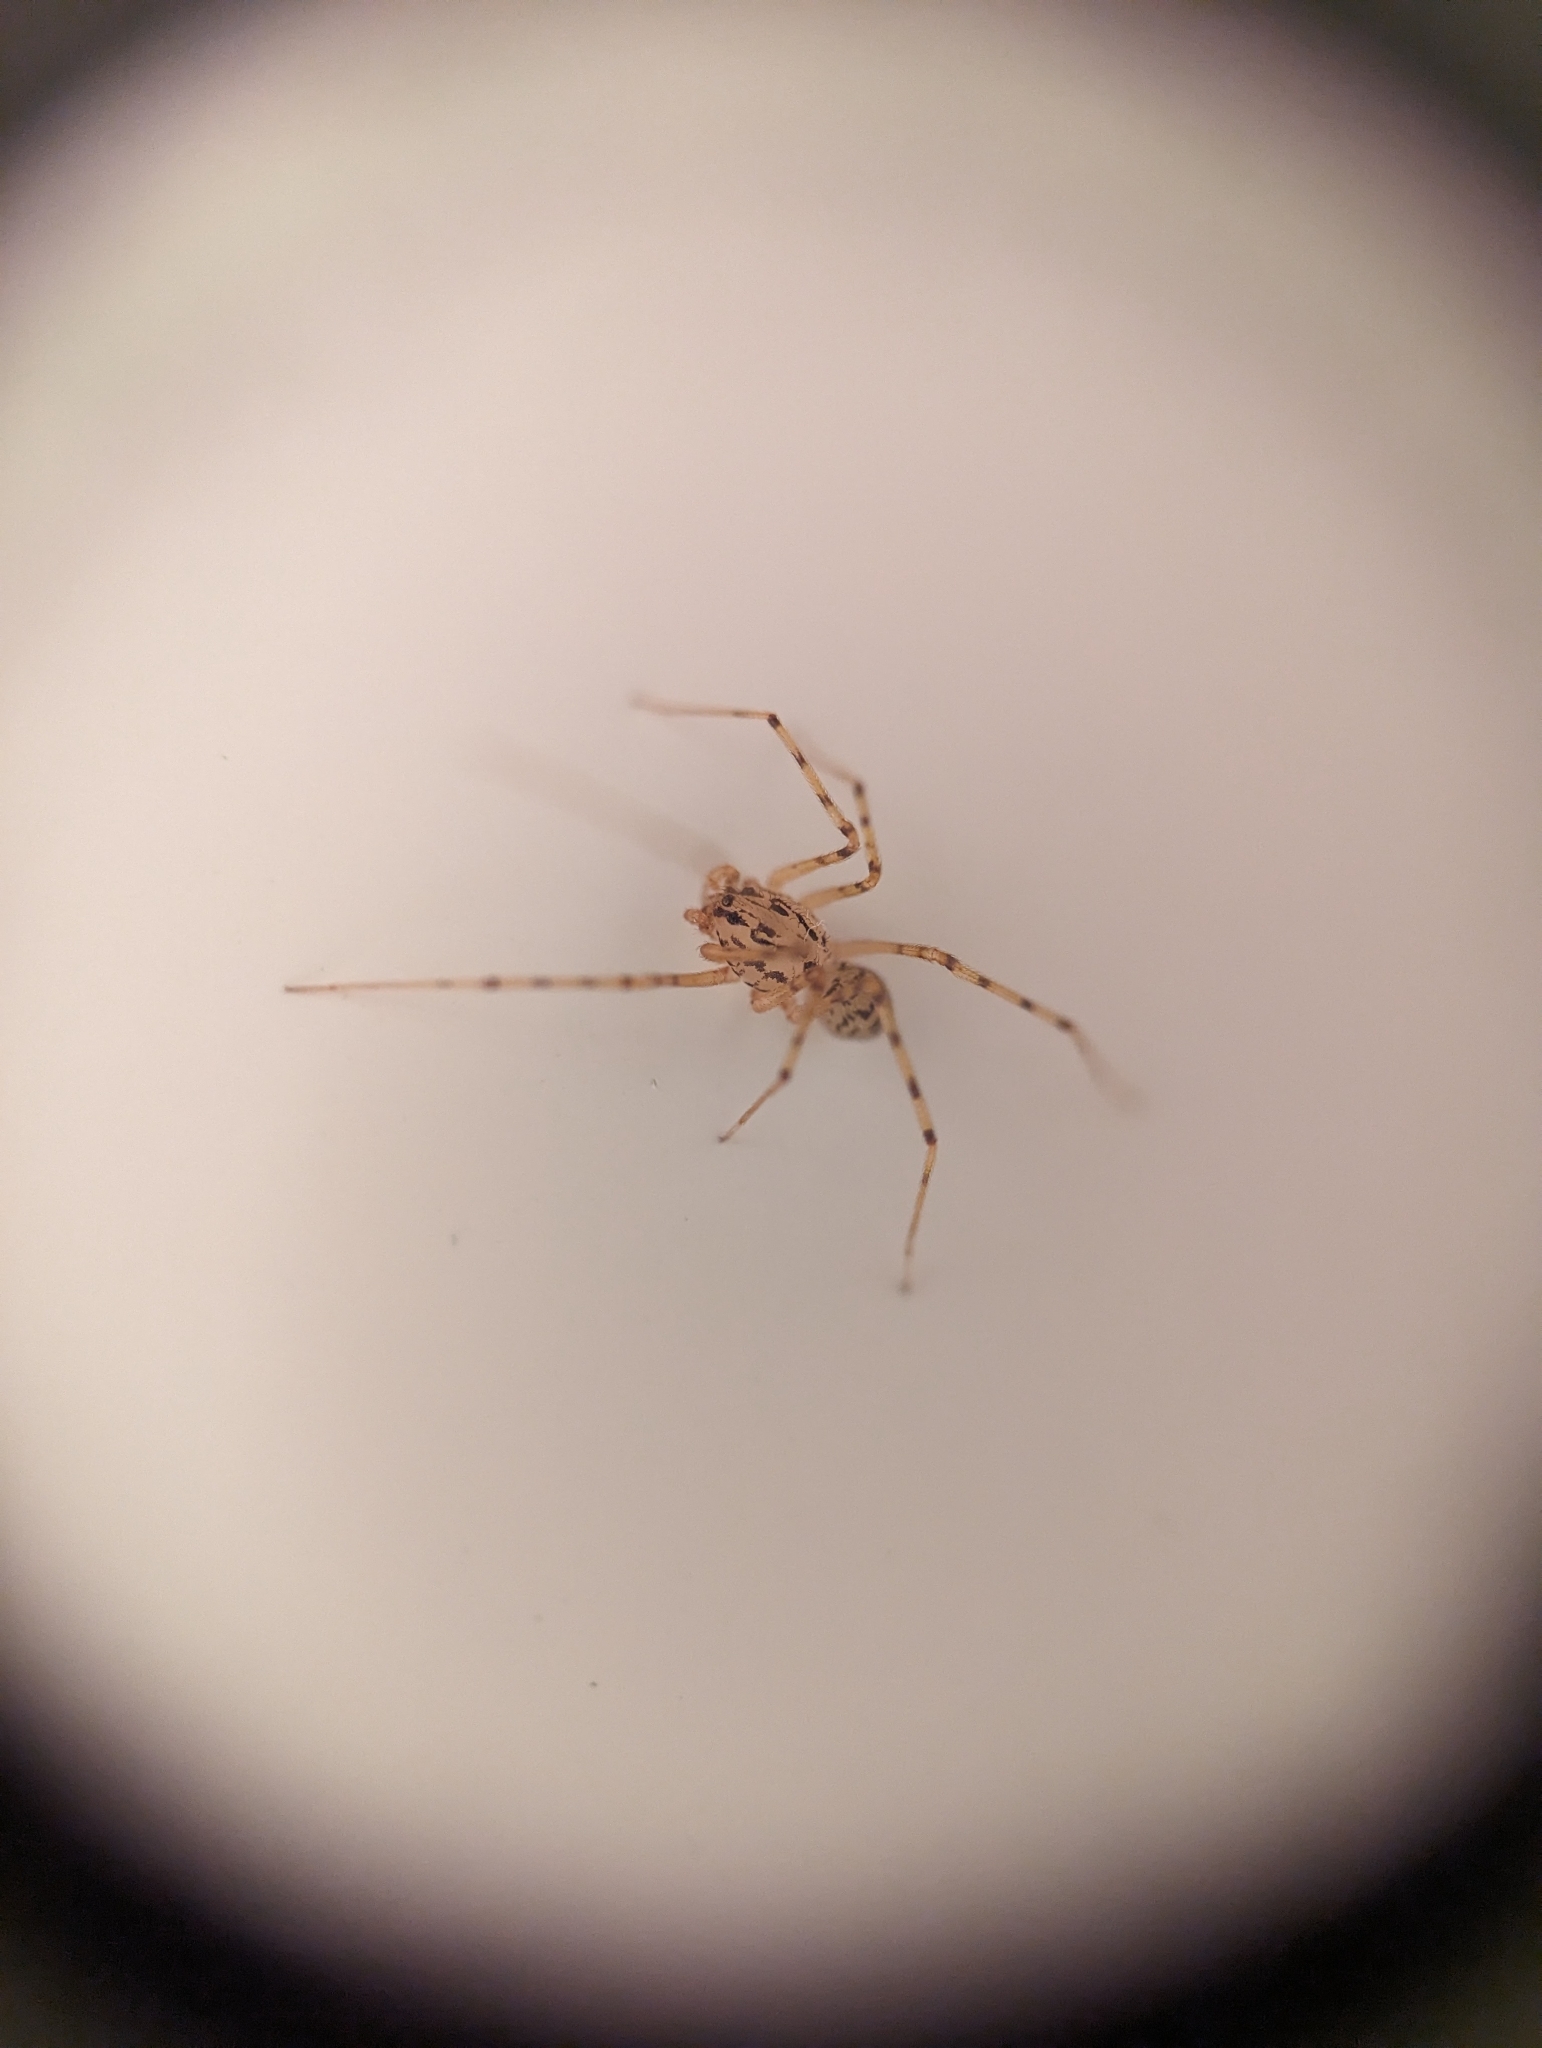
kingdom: Animalia
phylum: Arthropoda
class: Arachnida
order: Araneae
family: Scytodidae
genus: Scytodes
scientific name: Scytodes thoracica
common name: Spitting spider
